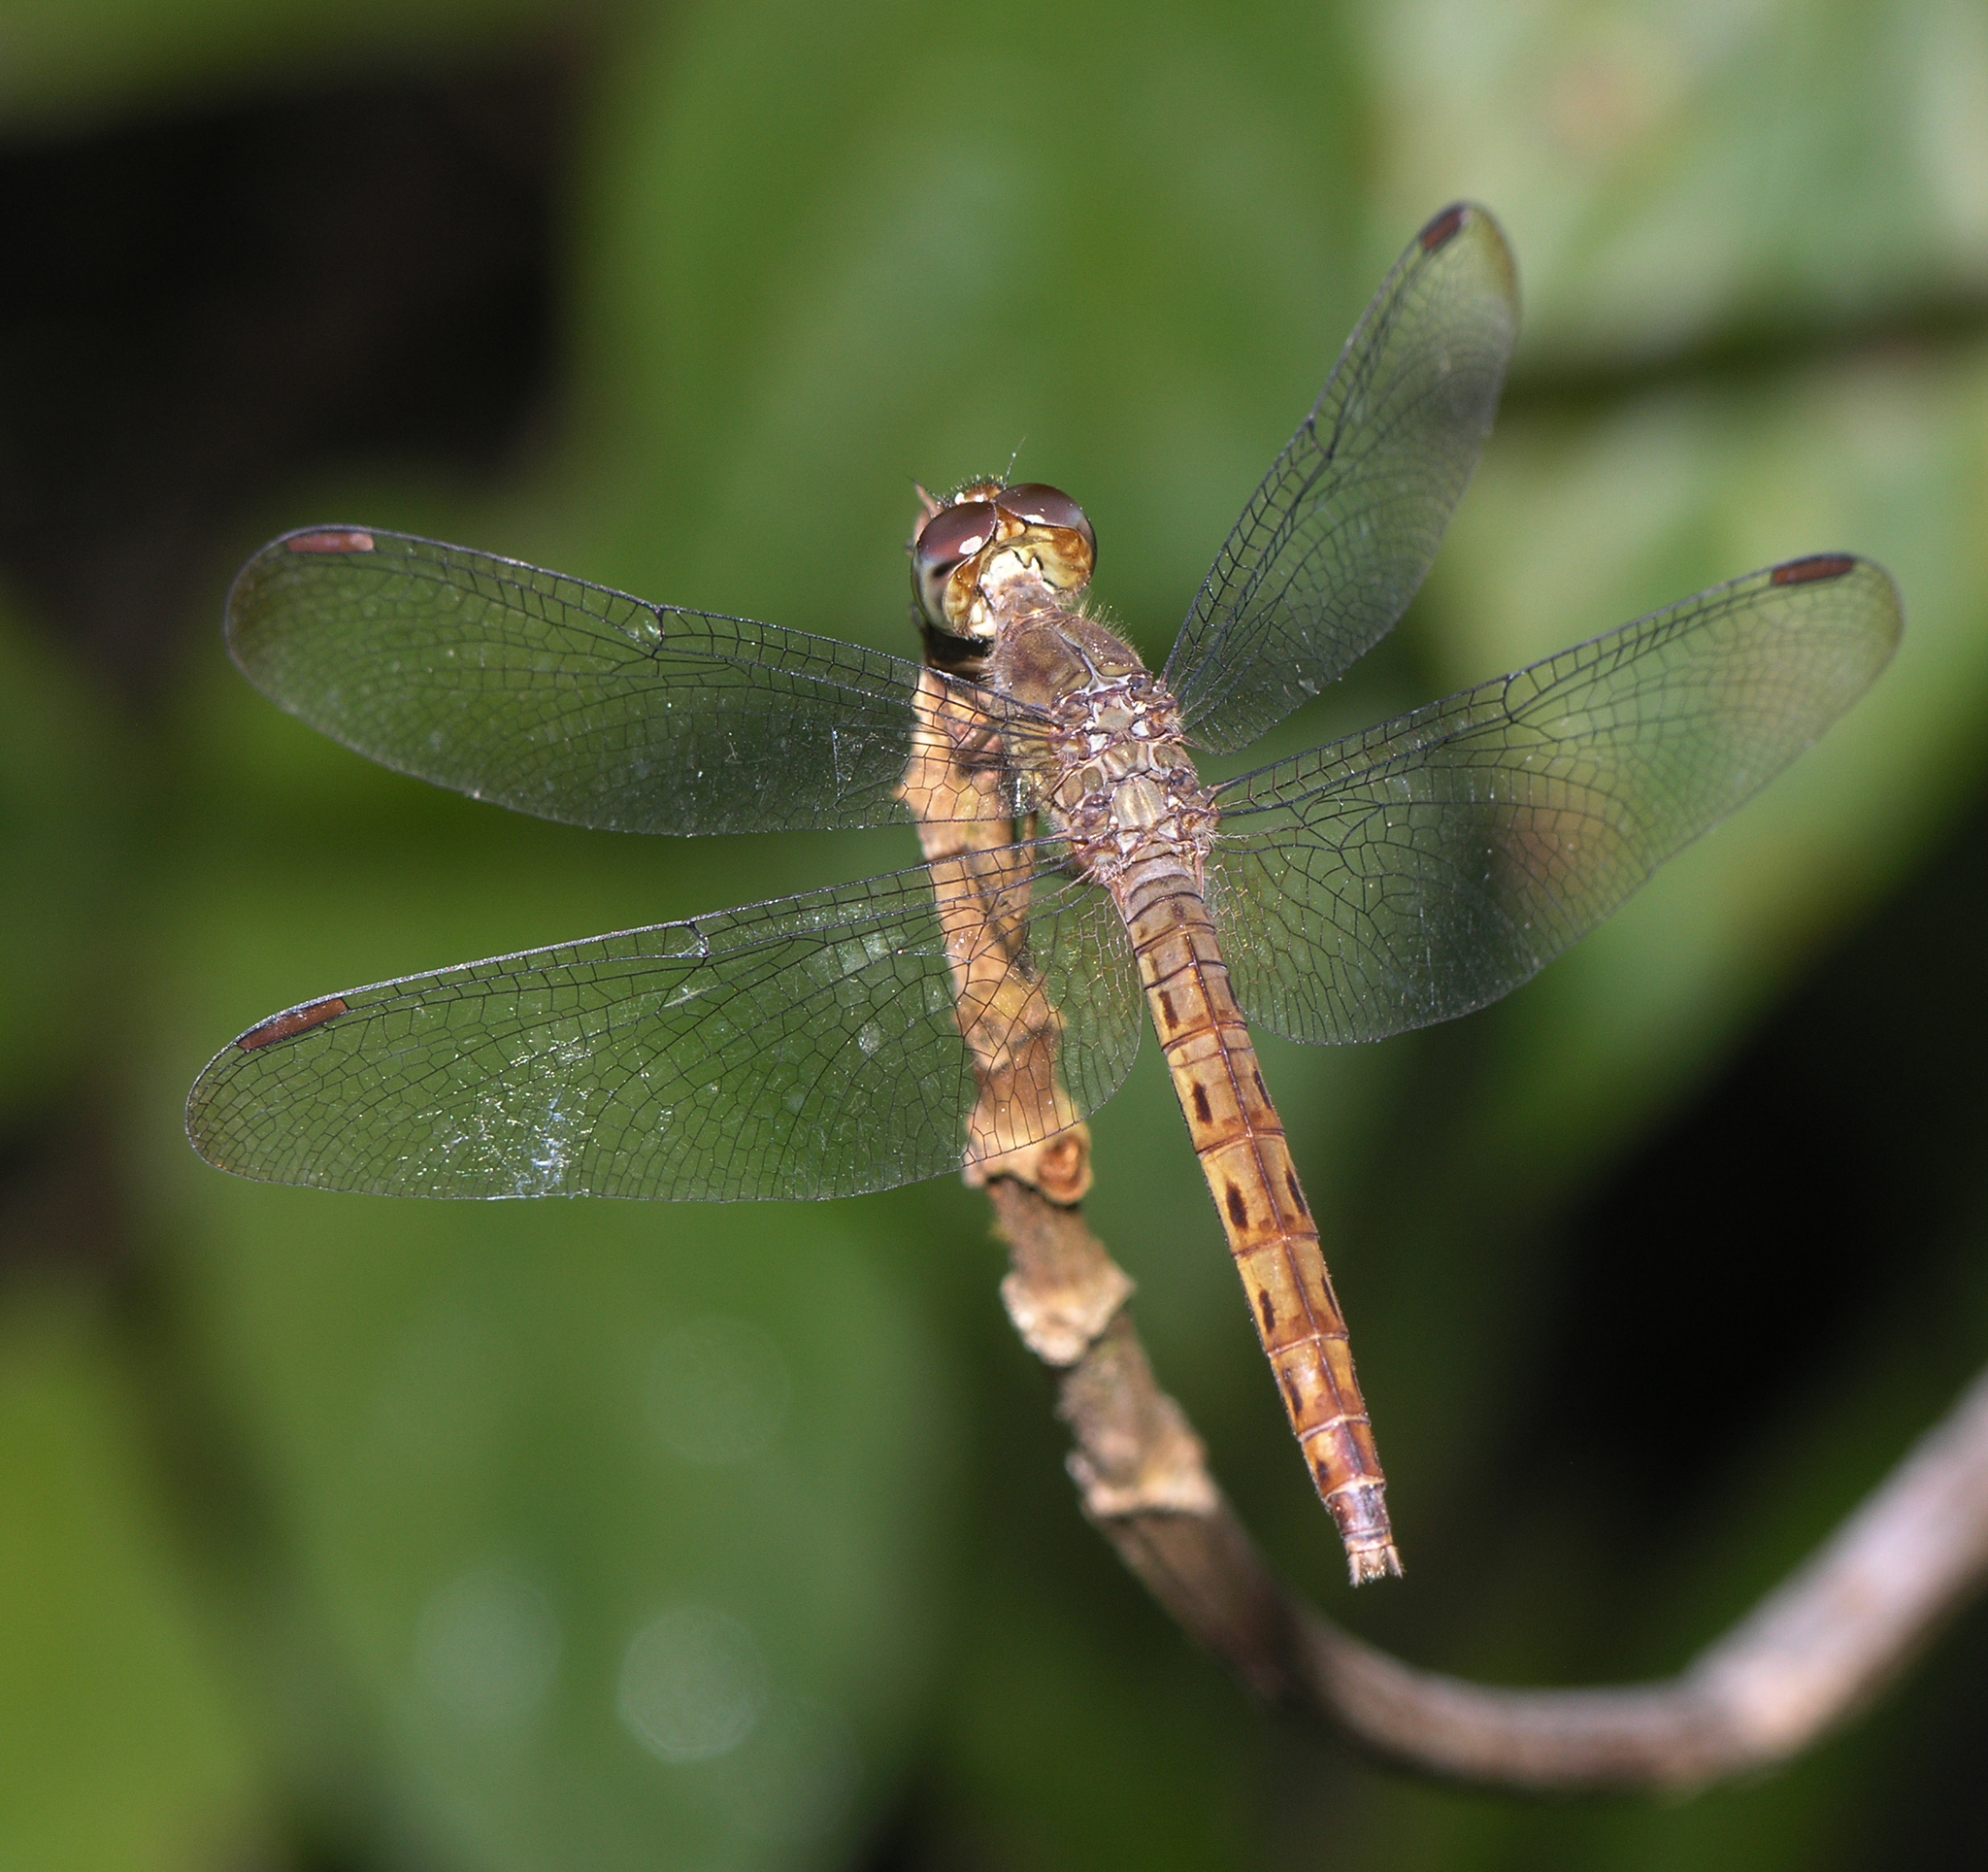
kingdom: Animalia
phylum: Arthropoda
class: Insecta
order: Odonata
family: Libellulidae
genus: Neurothemis
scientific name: Neurothemis fluctuans
